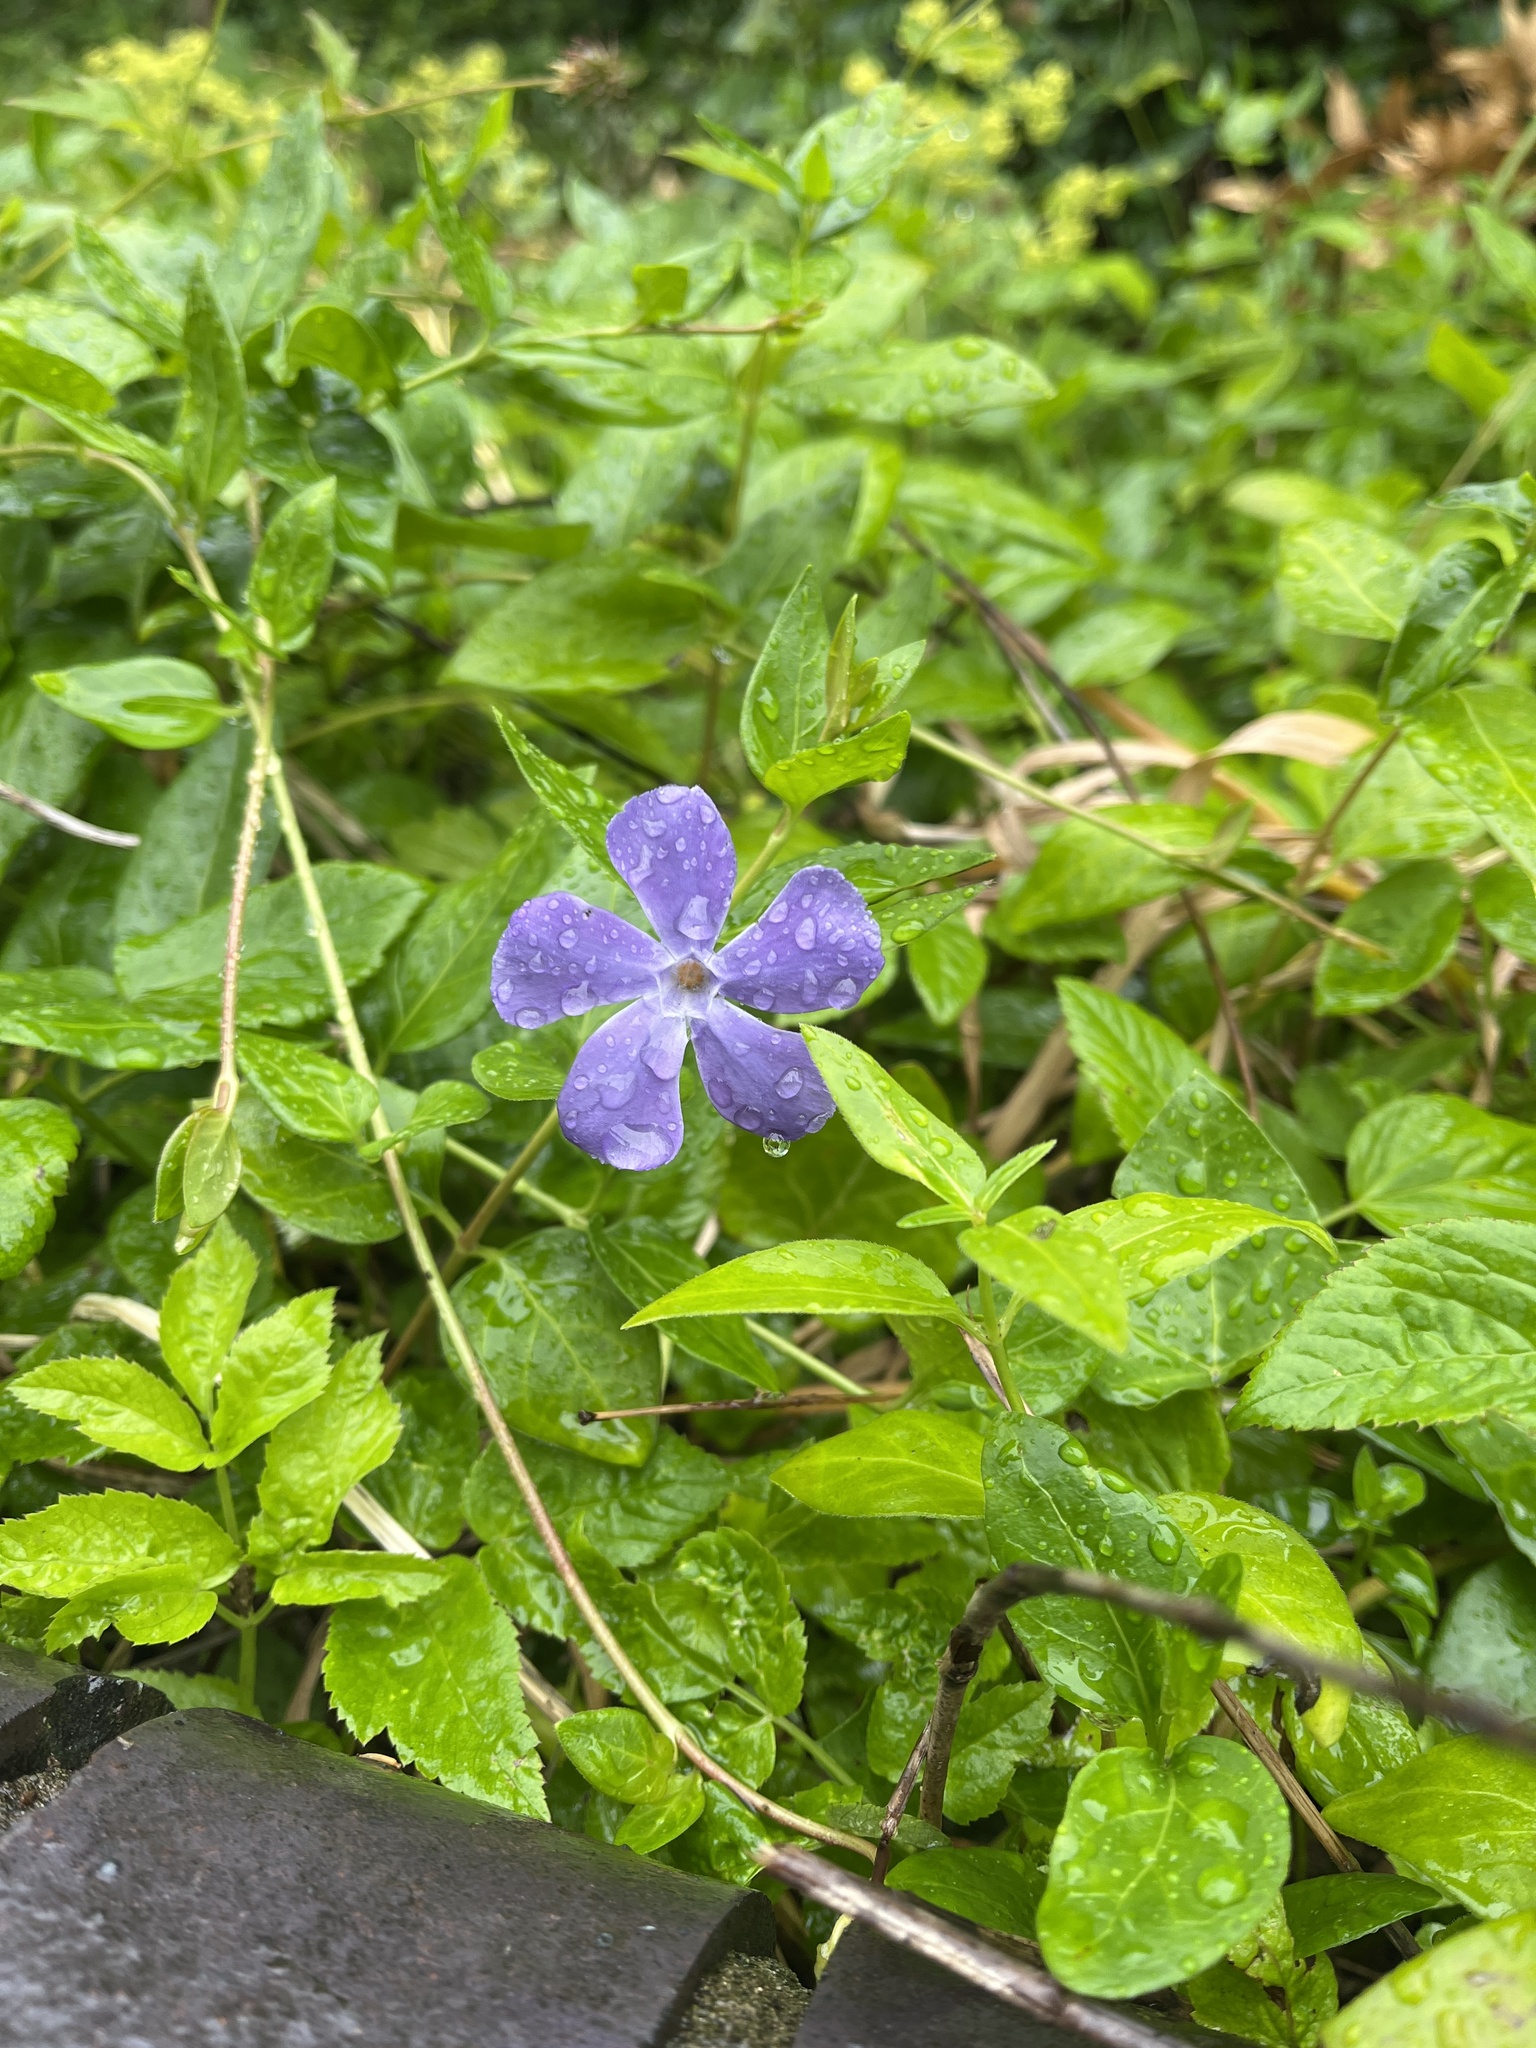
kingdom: Plantae
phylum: Tracheophyta
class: Magnoliopsida
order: Gentianales
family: Apocynaceae
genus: Vinca
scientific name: Vinca major
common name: Greater periwinkle
